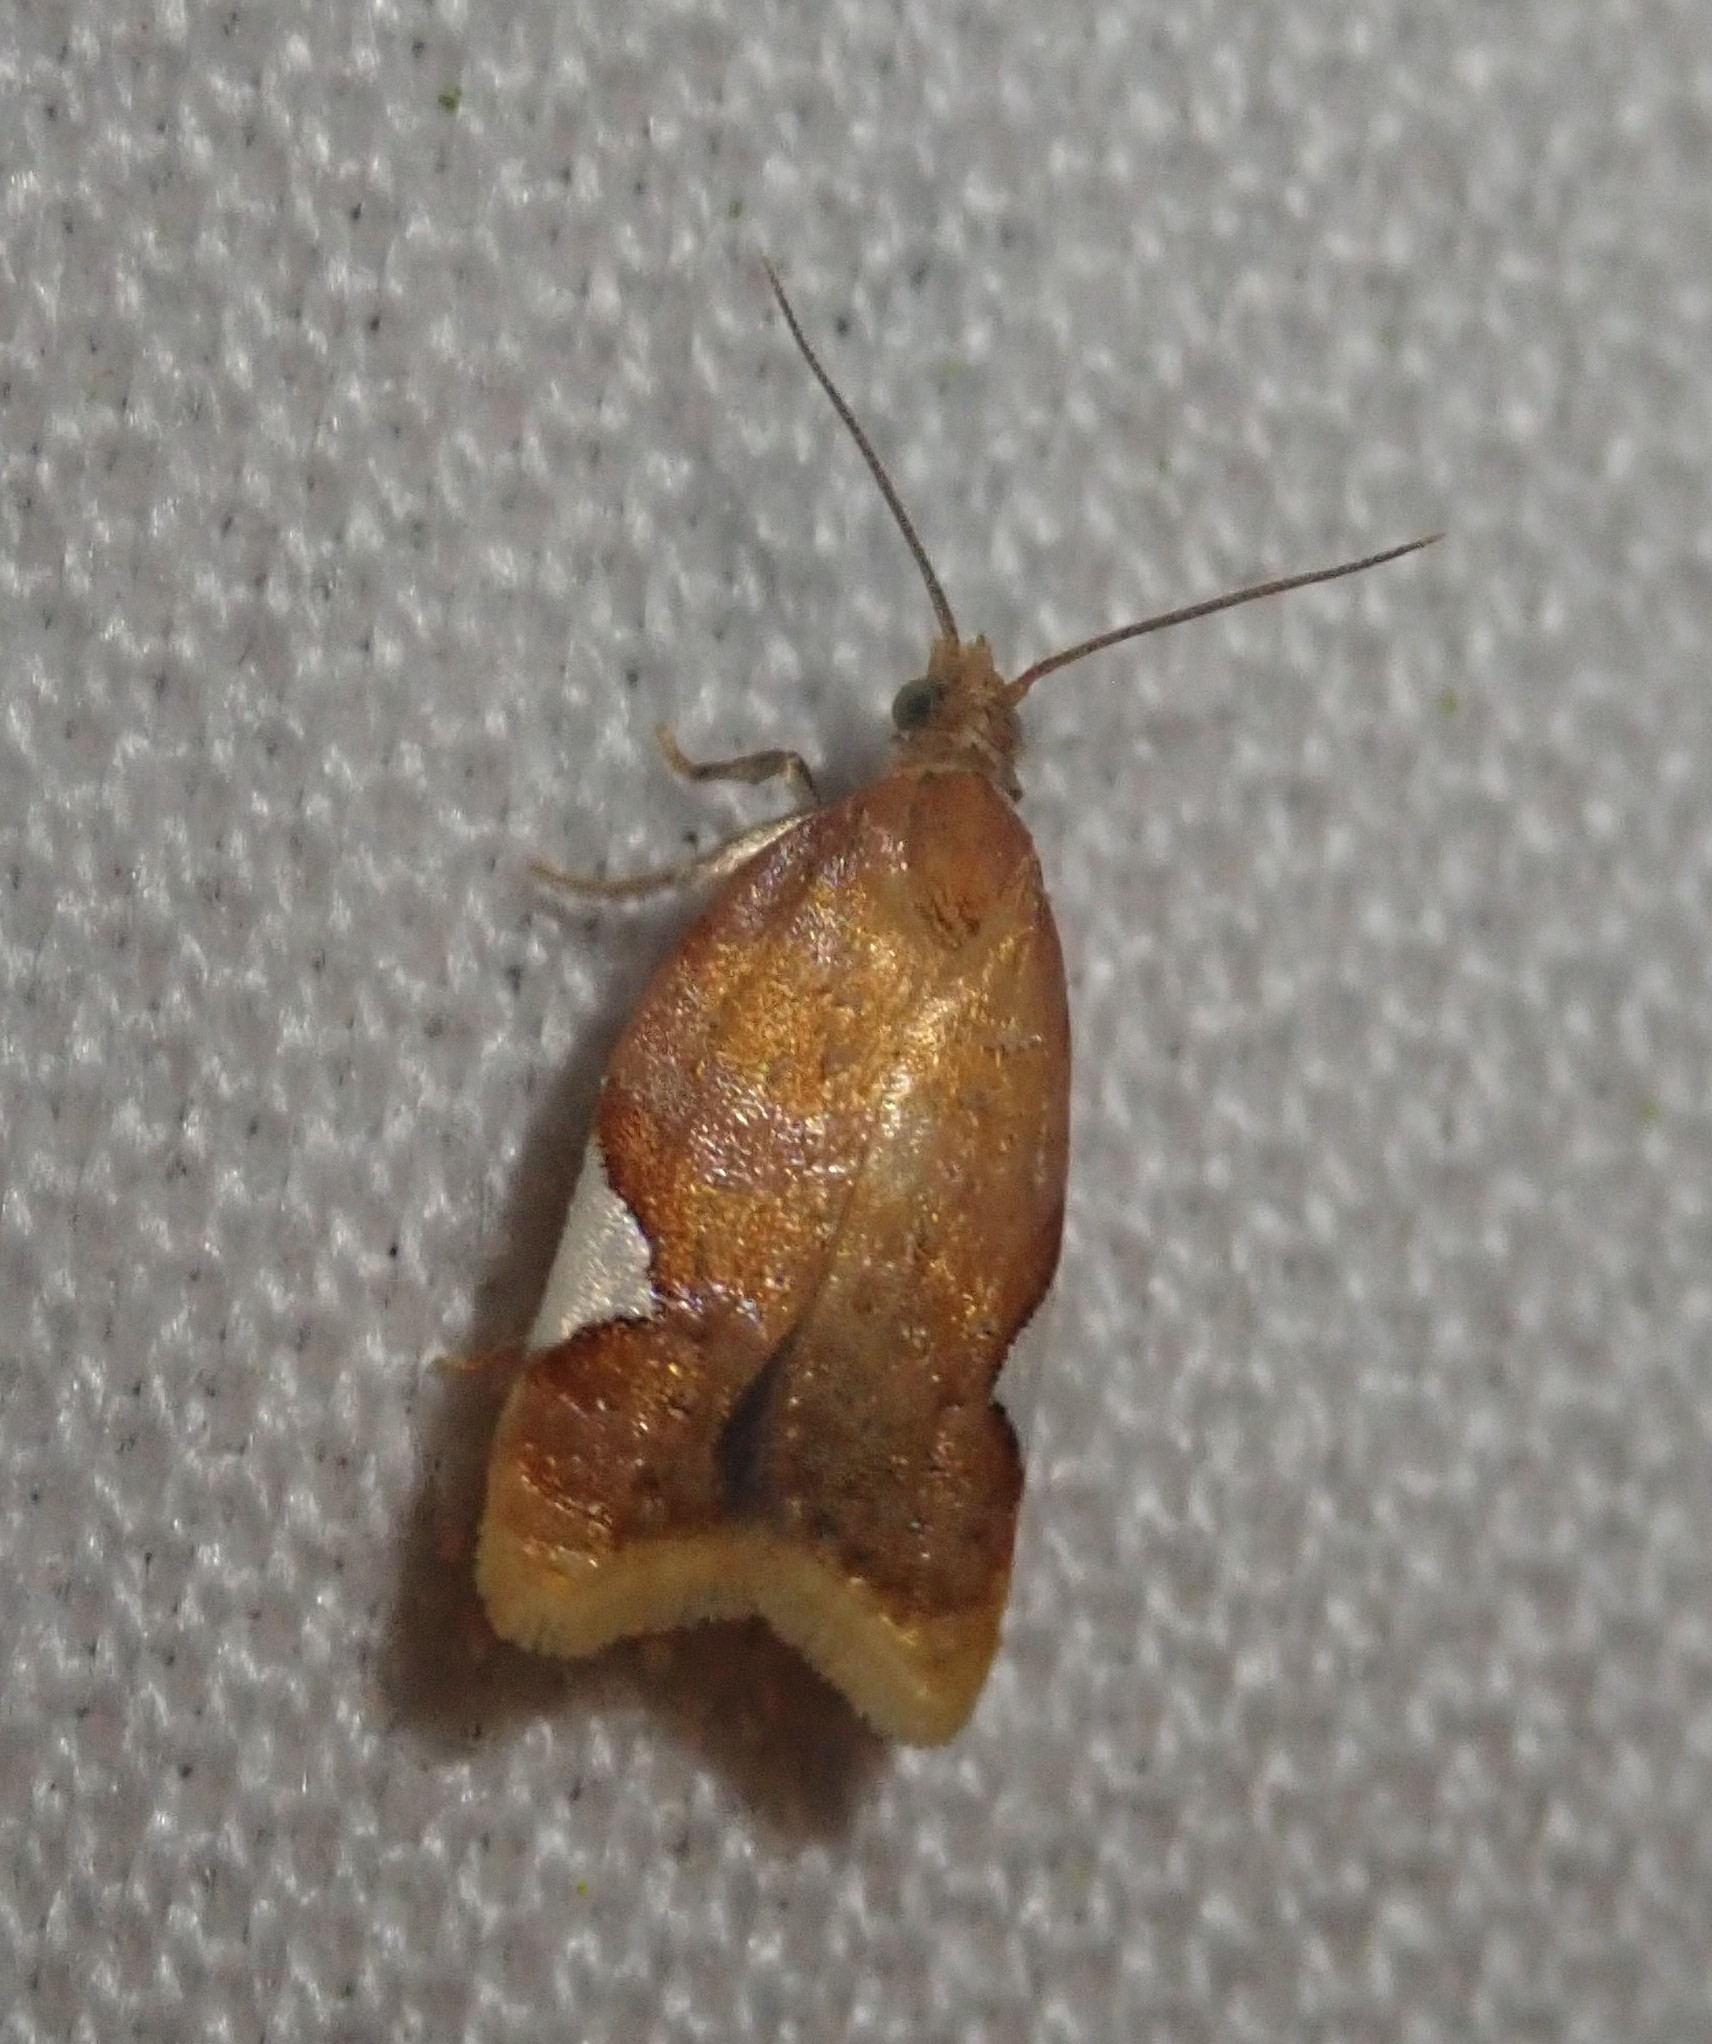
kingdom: Animalia
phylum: Arthropoda
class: Insecta
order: Lepidoptera
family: Tortricidae
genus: Acleris
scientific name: Acleris holmiana
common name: Golden leafroller moth
